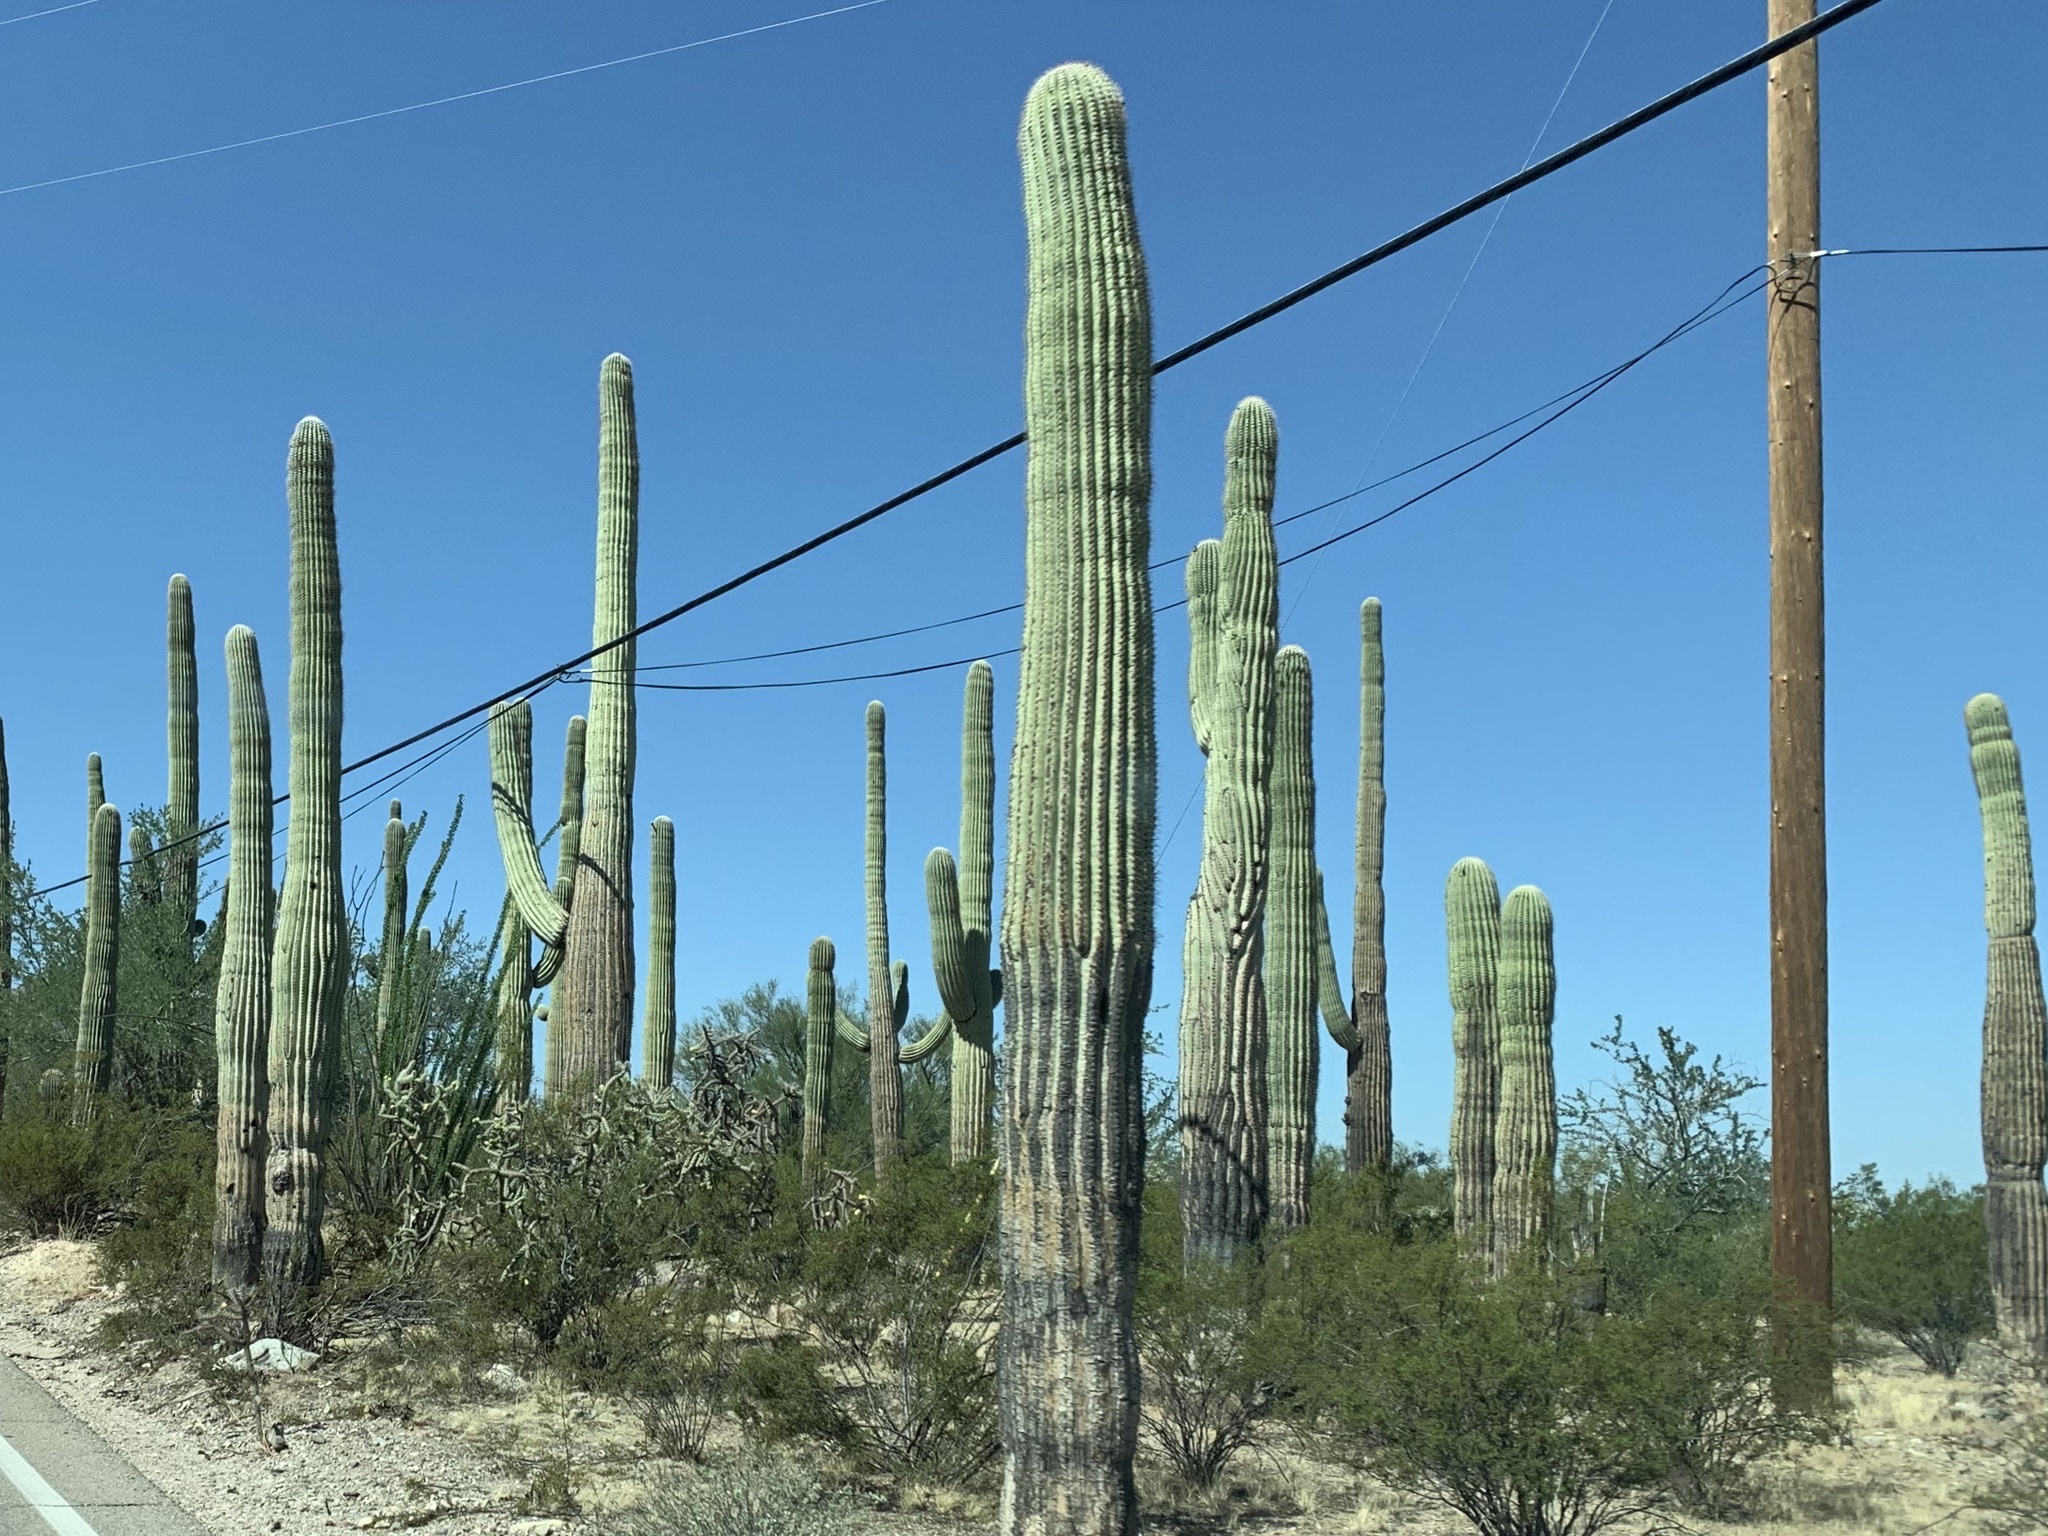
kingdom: Plantae
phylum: Tracheophyta
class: Magnoliopsida
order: Caryophyllales
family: Cactaceae
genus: Carnegiea
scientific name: Carnegiea gigantea
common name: Saguaro
